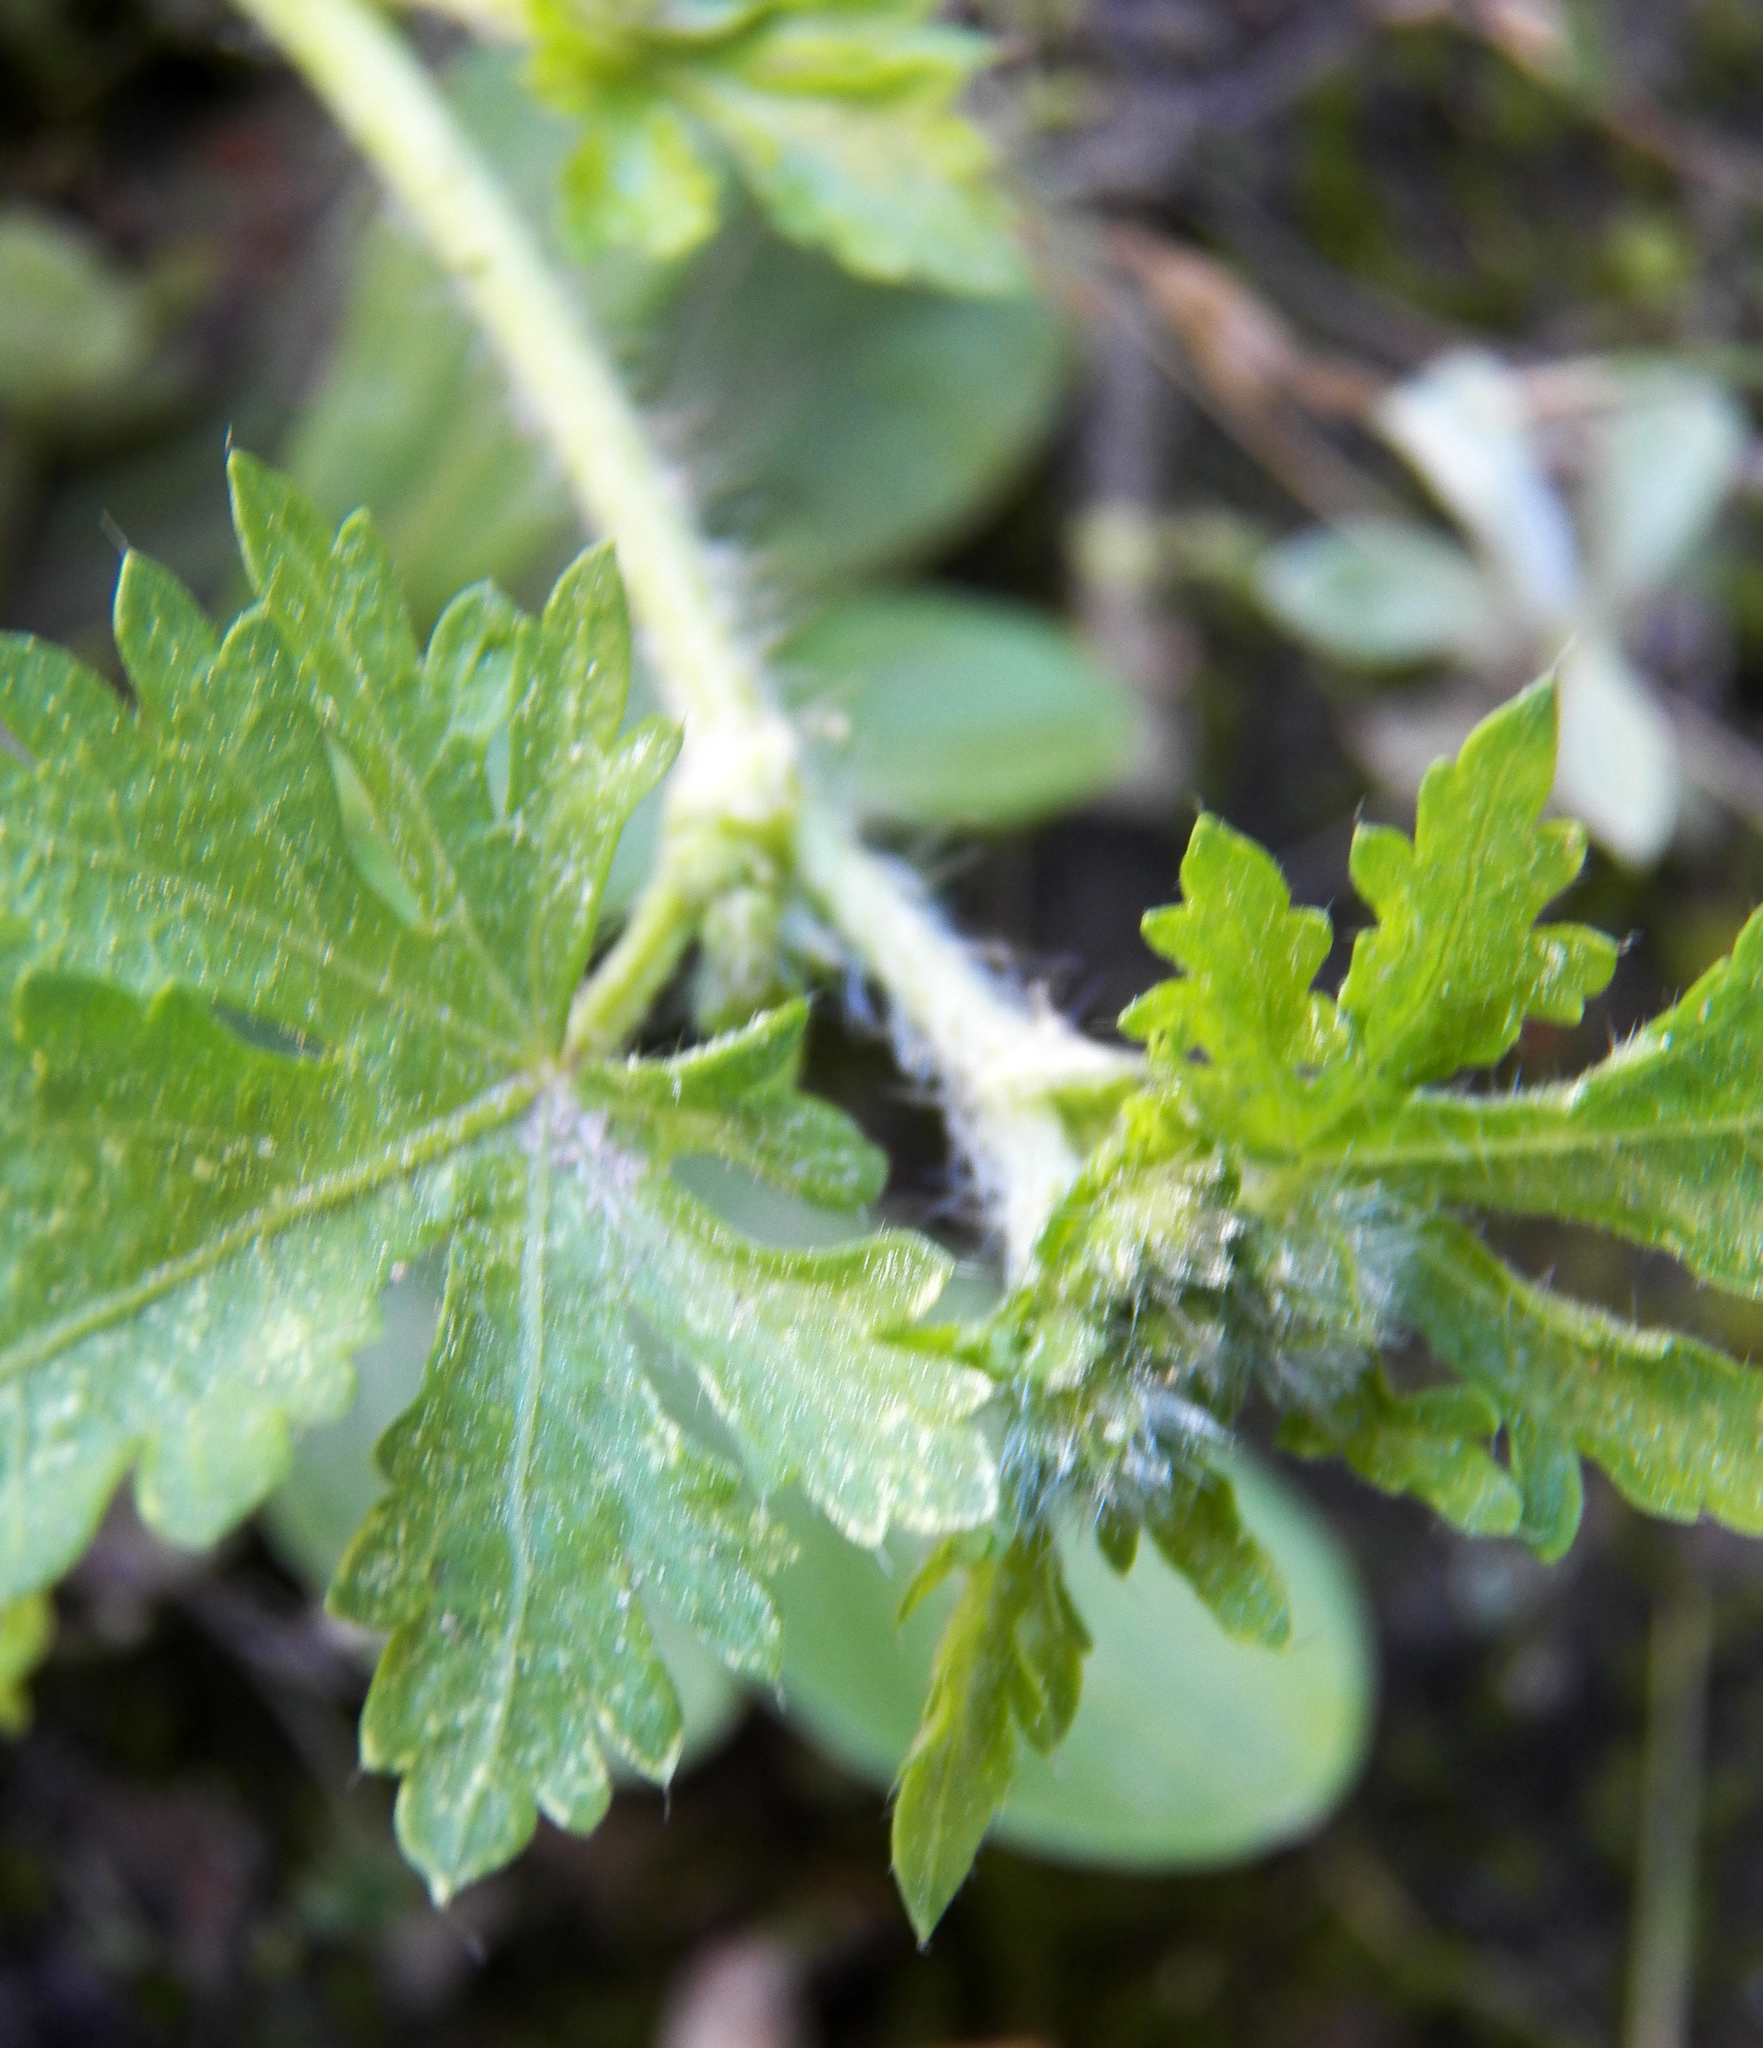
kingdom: Plantae
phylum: Tracheophyta
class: Magnoliopsida
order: Malvales
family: Malvaceae
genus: Modiola
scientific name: Modiola caroliniana
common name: Carolina bristlemallow
